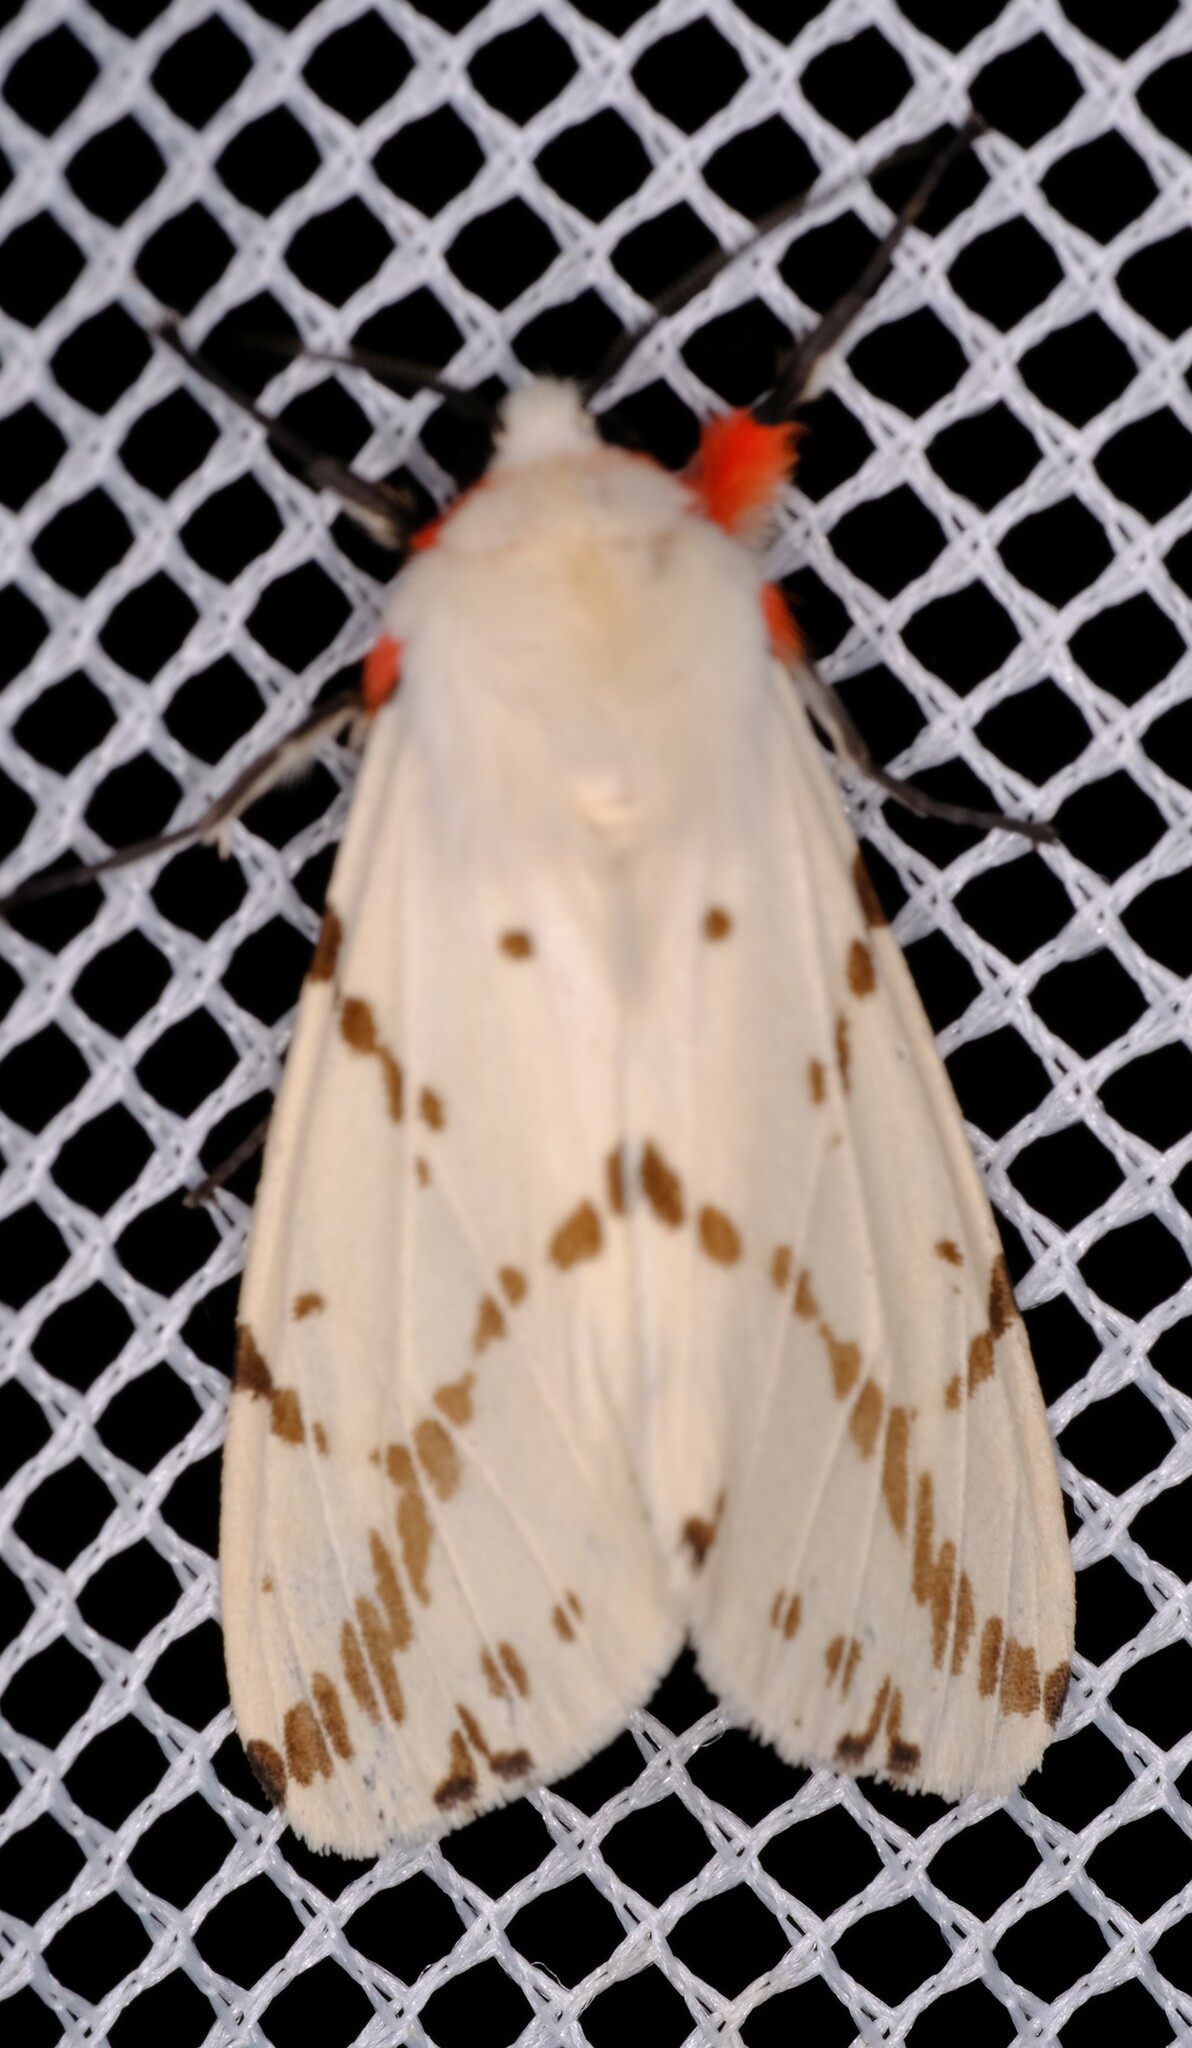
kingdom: Animalia
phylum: Arthropoda
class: Insecta
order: Lepidoptera
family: Erebidae
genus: Ardices
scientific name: Ardices canescens
